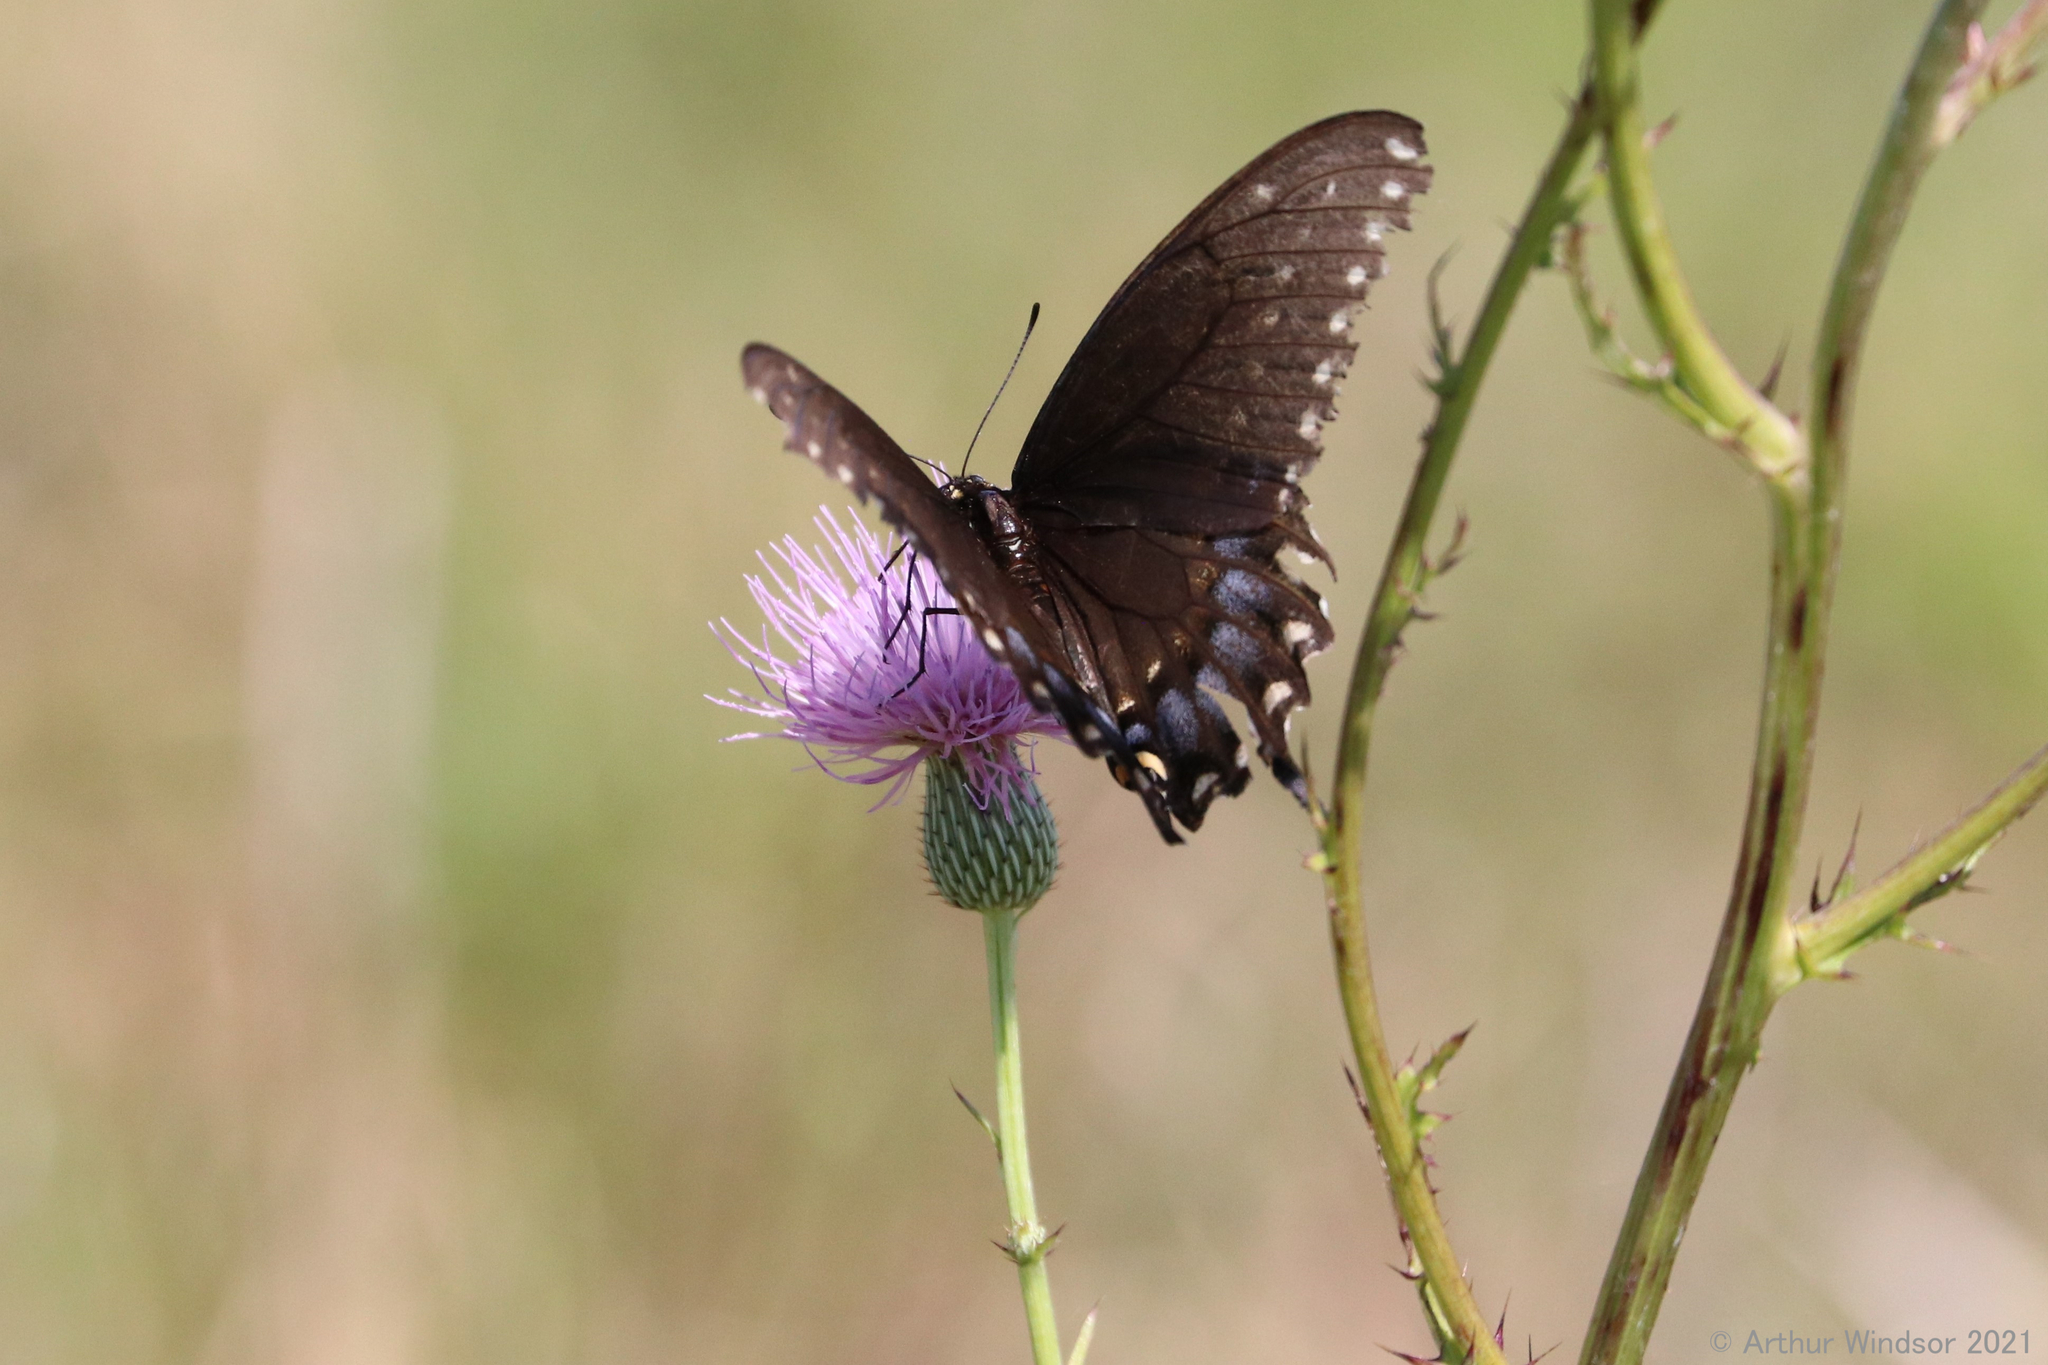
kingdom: Animalia
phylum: Arthropoda
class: Insecta
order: Lepidoptera
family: Papilionidae
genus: Papilio
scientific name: Papilio polyxenes
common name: Black swallowtail
